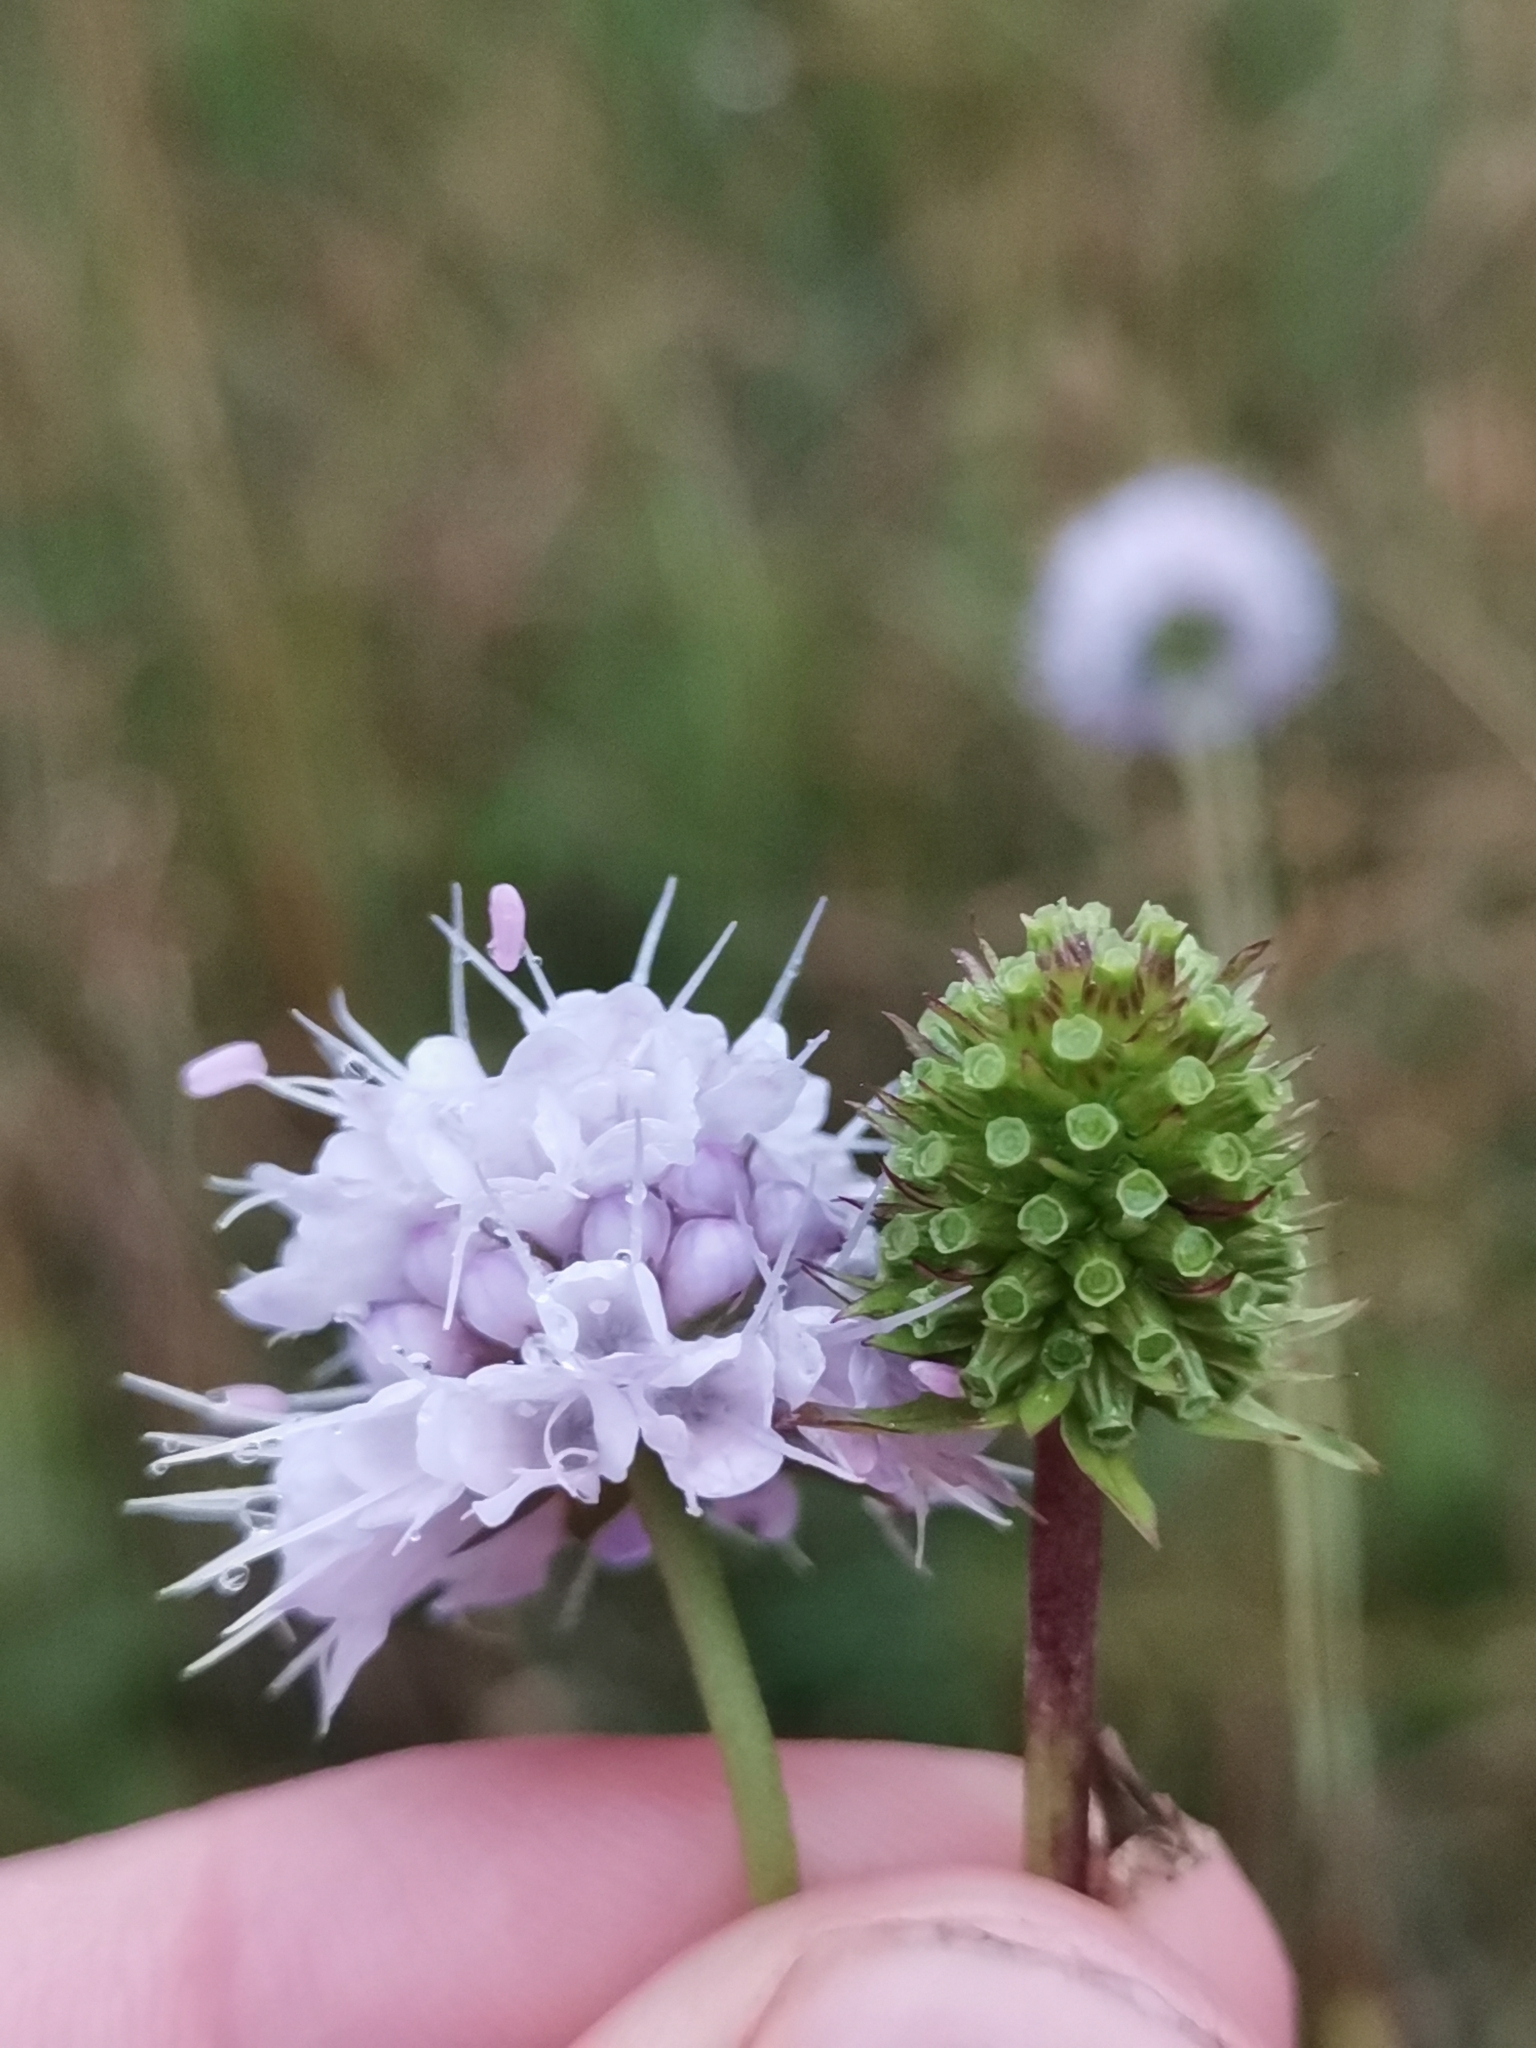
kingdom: Plantae
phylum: Tracheophyta
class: Magnoliopsida
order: Dipsacales
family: Caprifoliaceae
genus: Succisella
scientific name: Succisella inflexa
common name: Southern succisella
